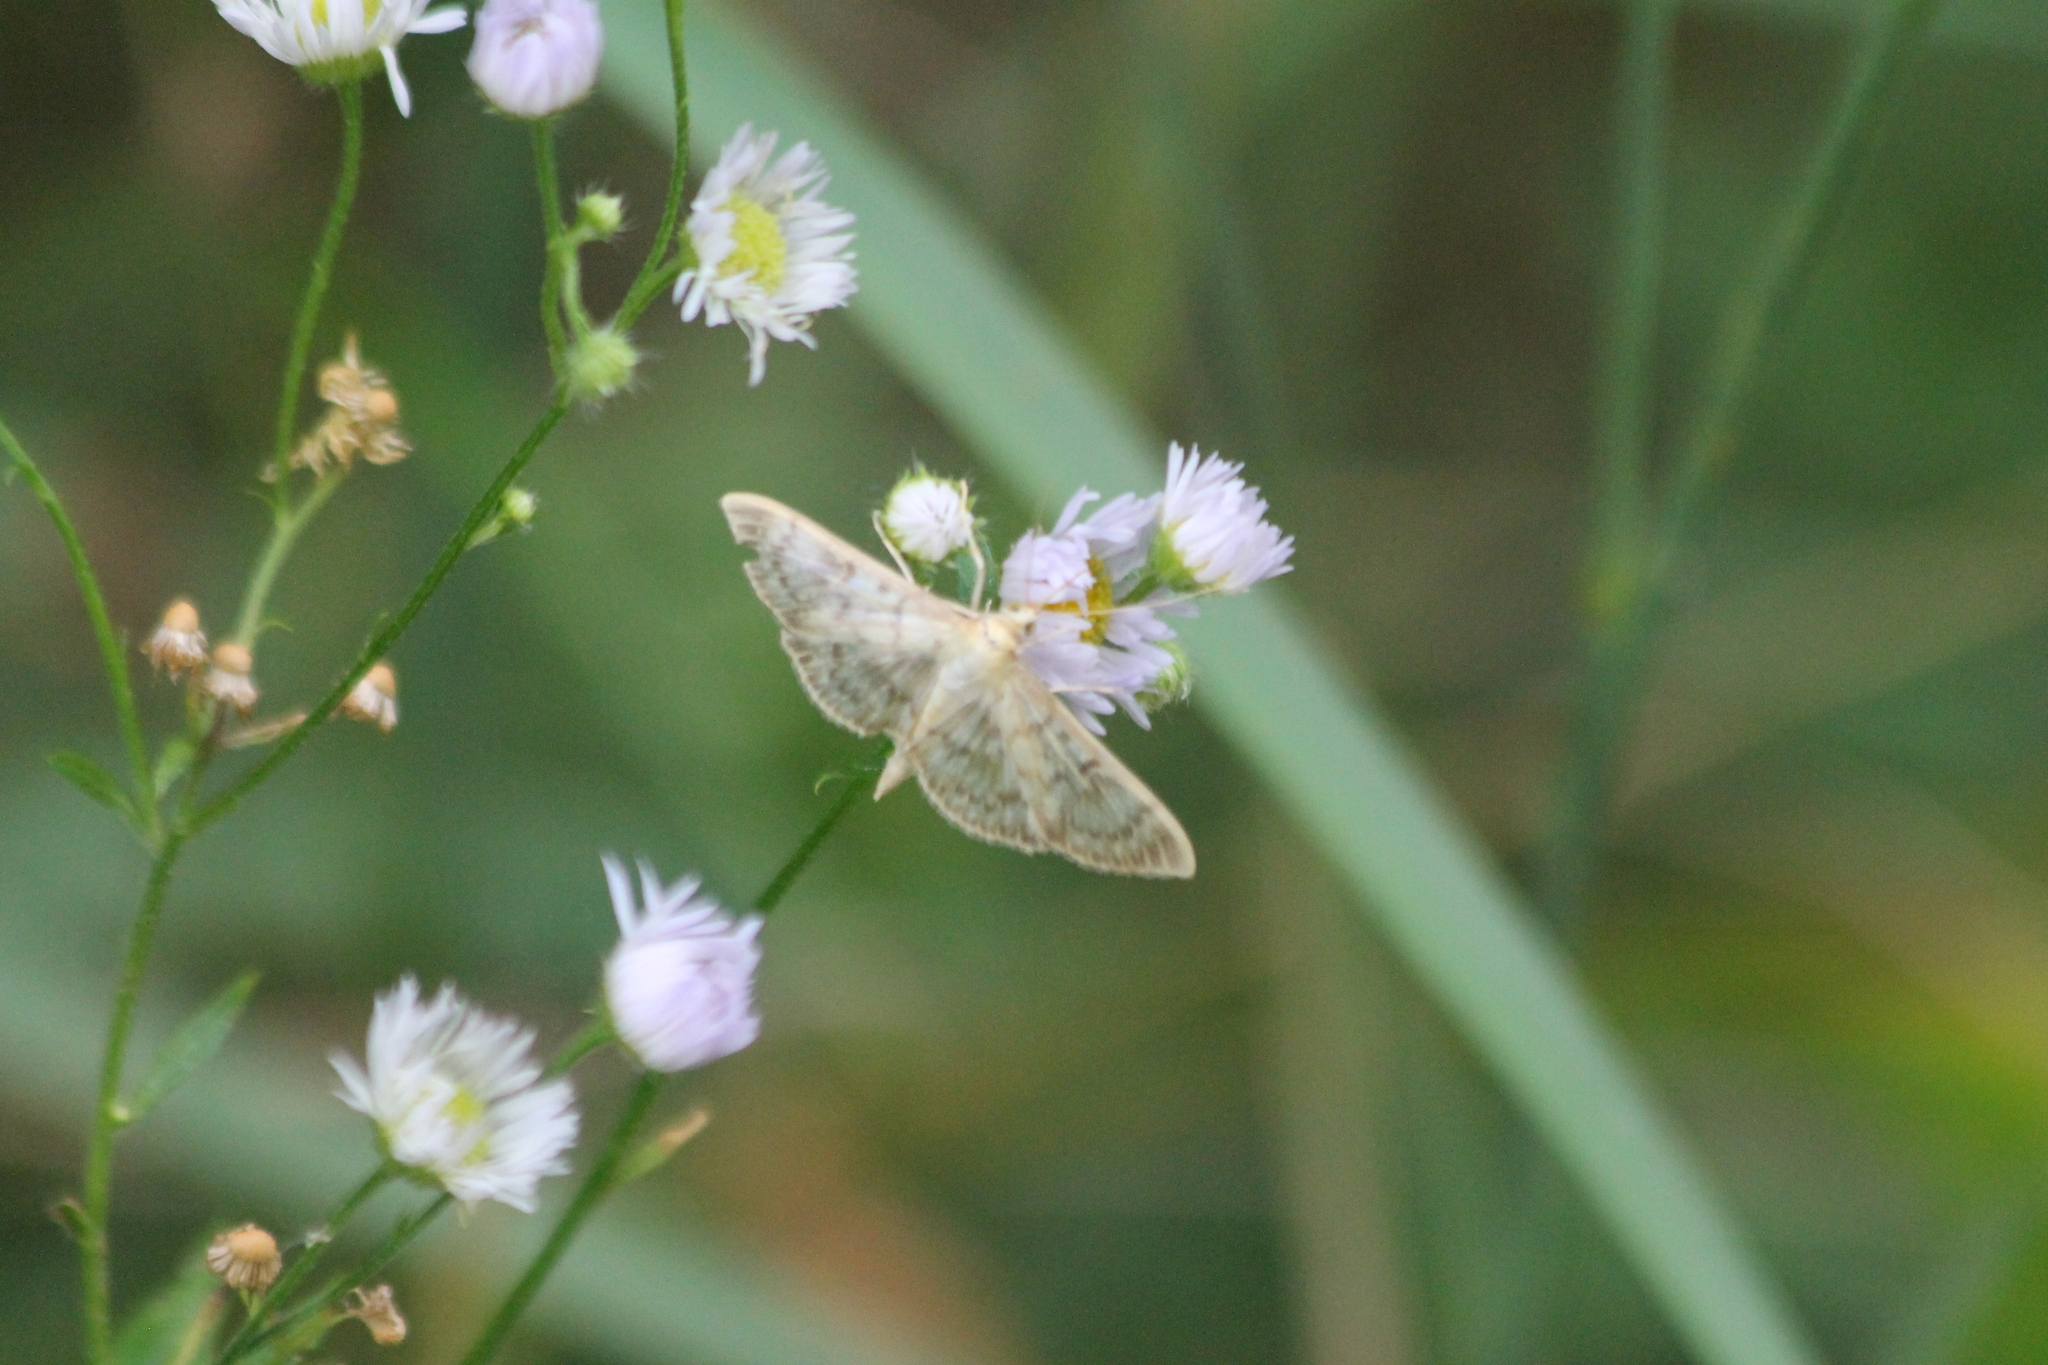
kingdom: Animalia
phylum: Arthropoda
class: Insecta
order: Lepidoptera
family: Crambidae
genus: Patania
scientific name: Patania ruralis
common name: Mother of pearl
